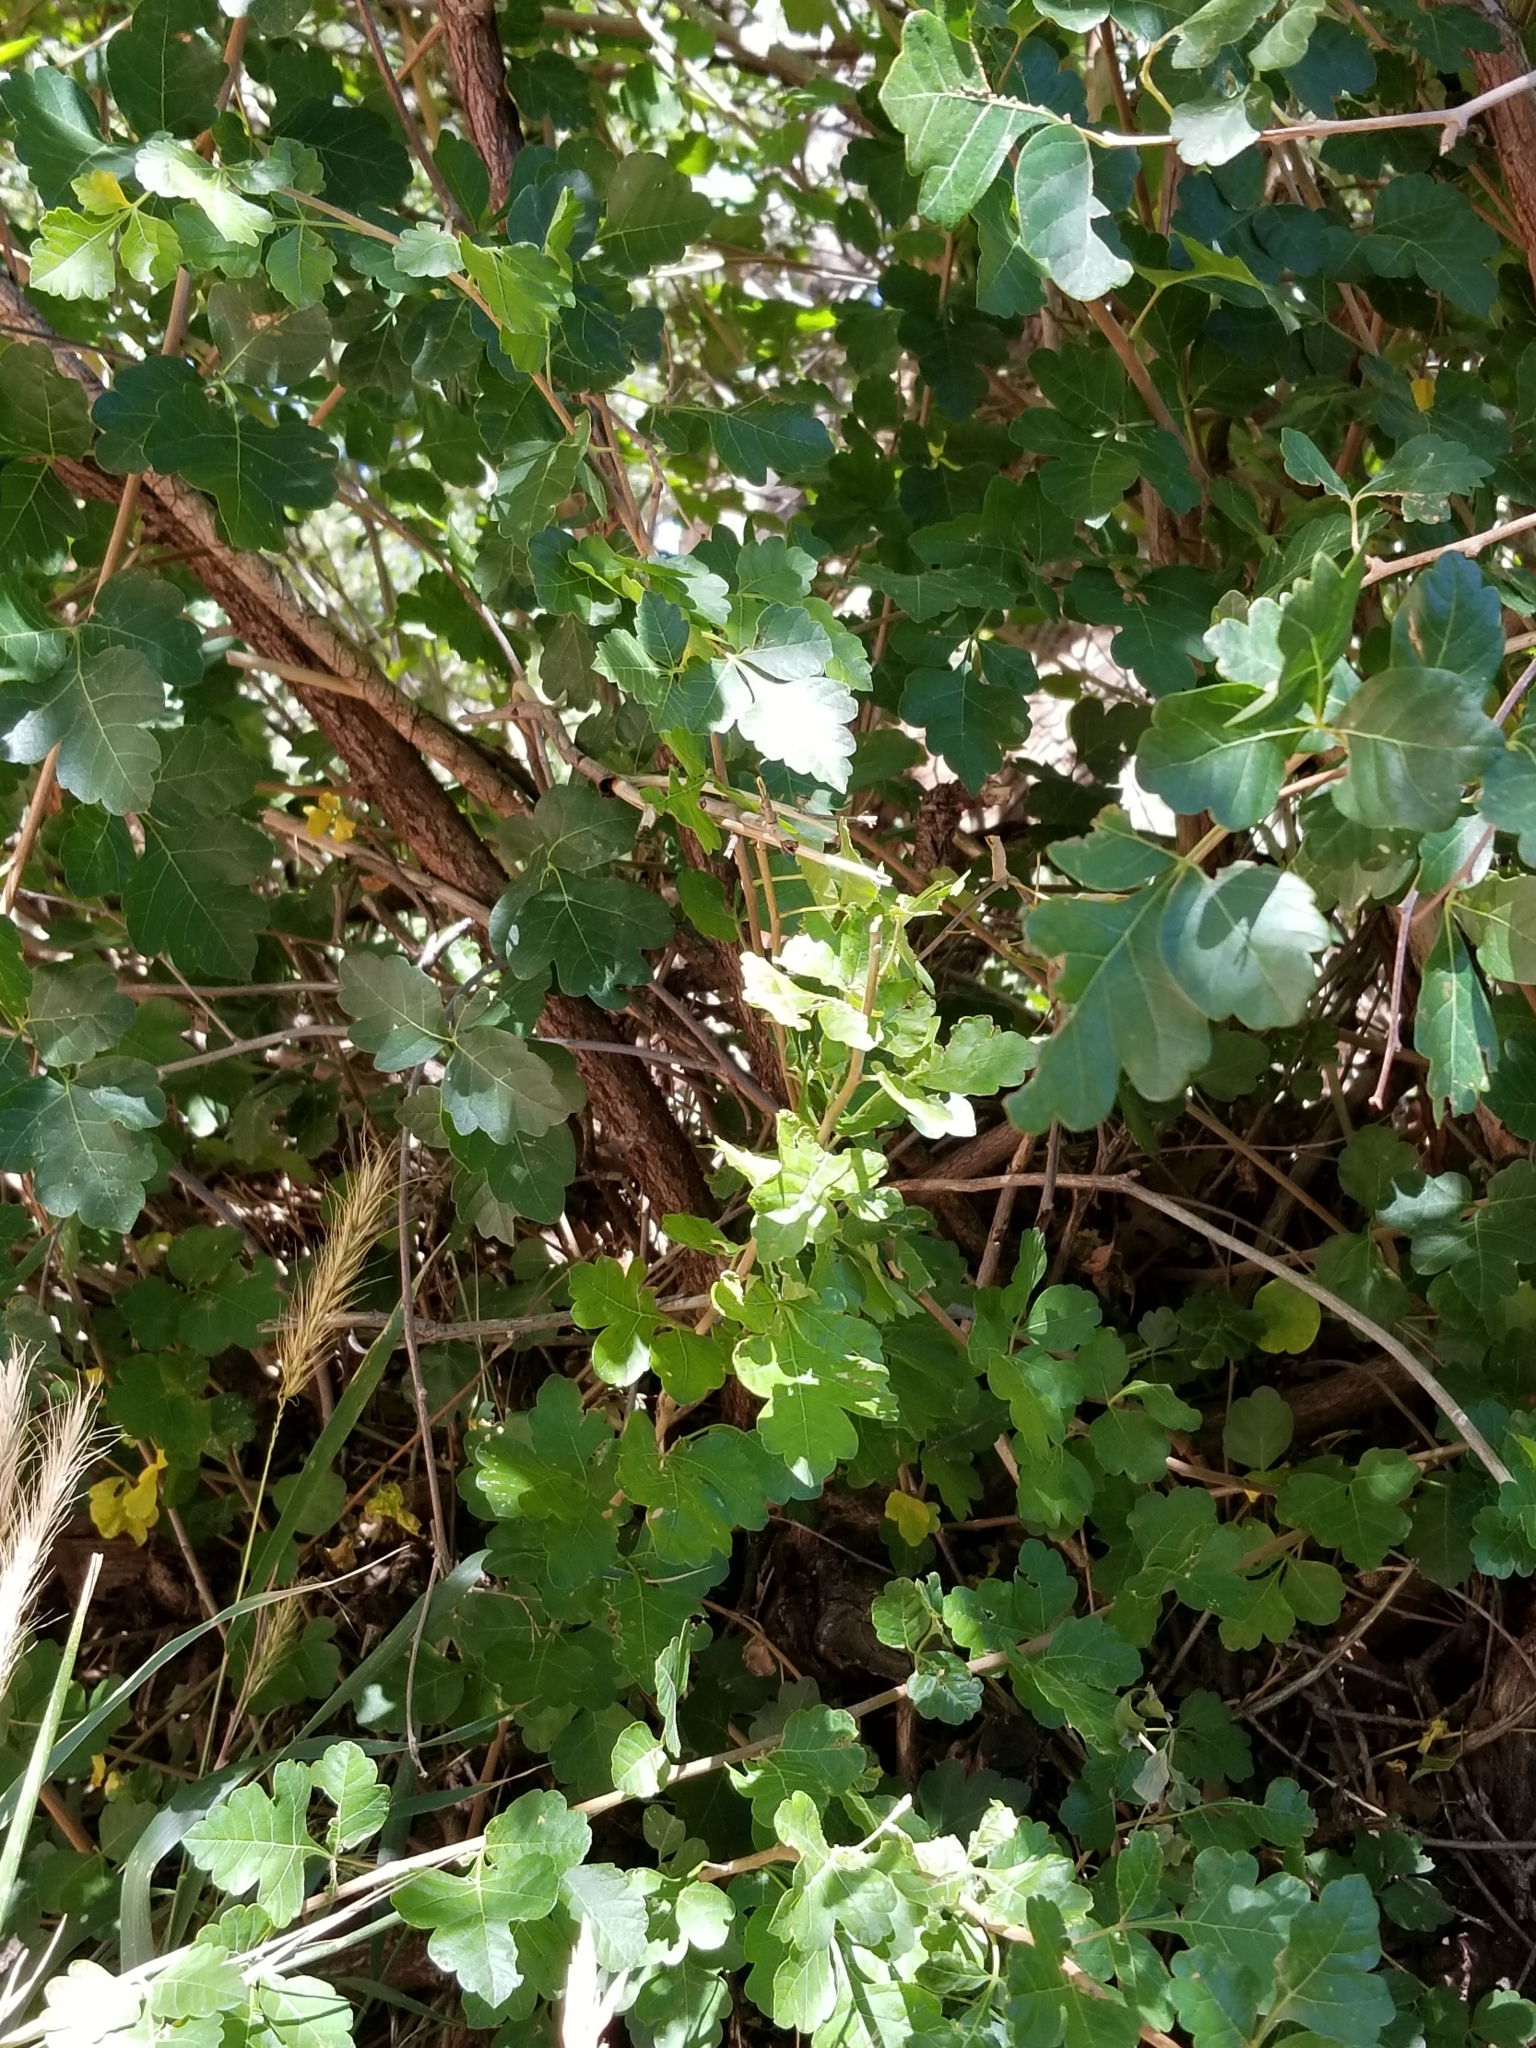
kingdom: Plantae
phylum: Tracheophyta
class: Magnoliopsida
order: Sapindales
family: Anacardiaceae
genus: Rhus
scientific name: Rhus aromatica
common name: Aromatic sumac
